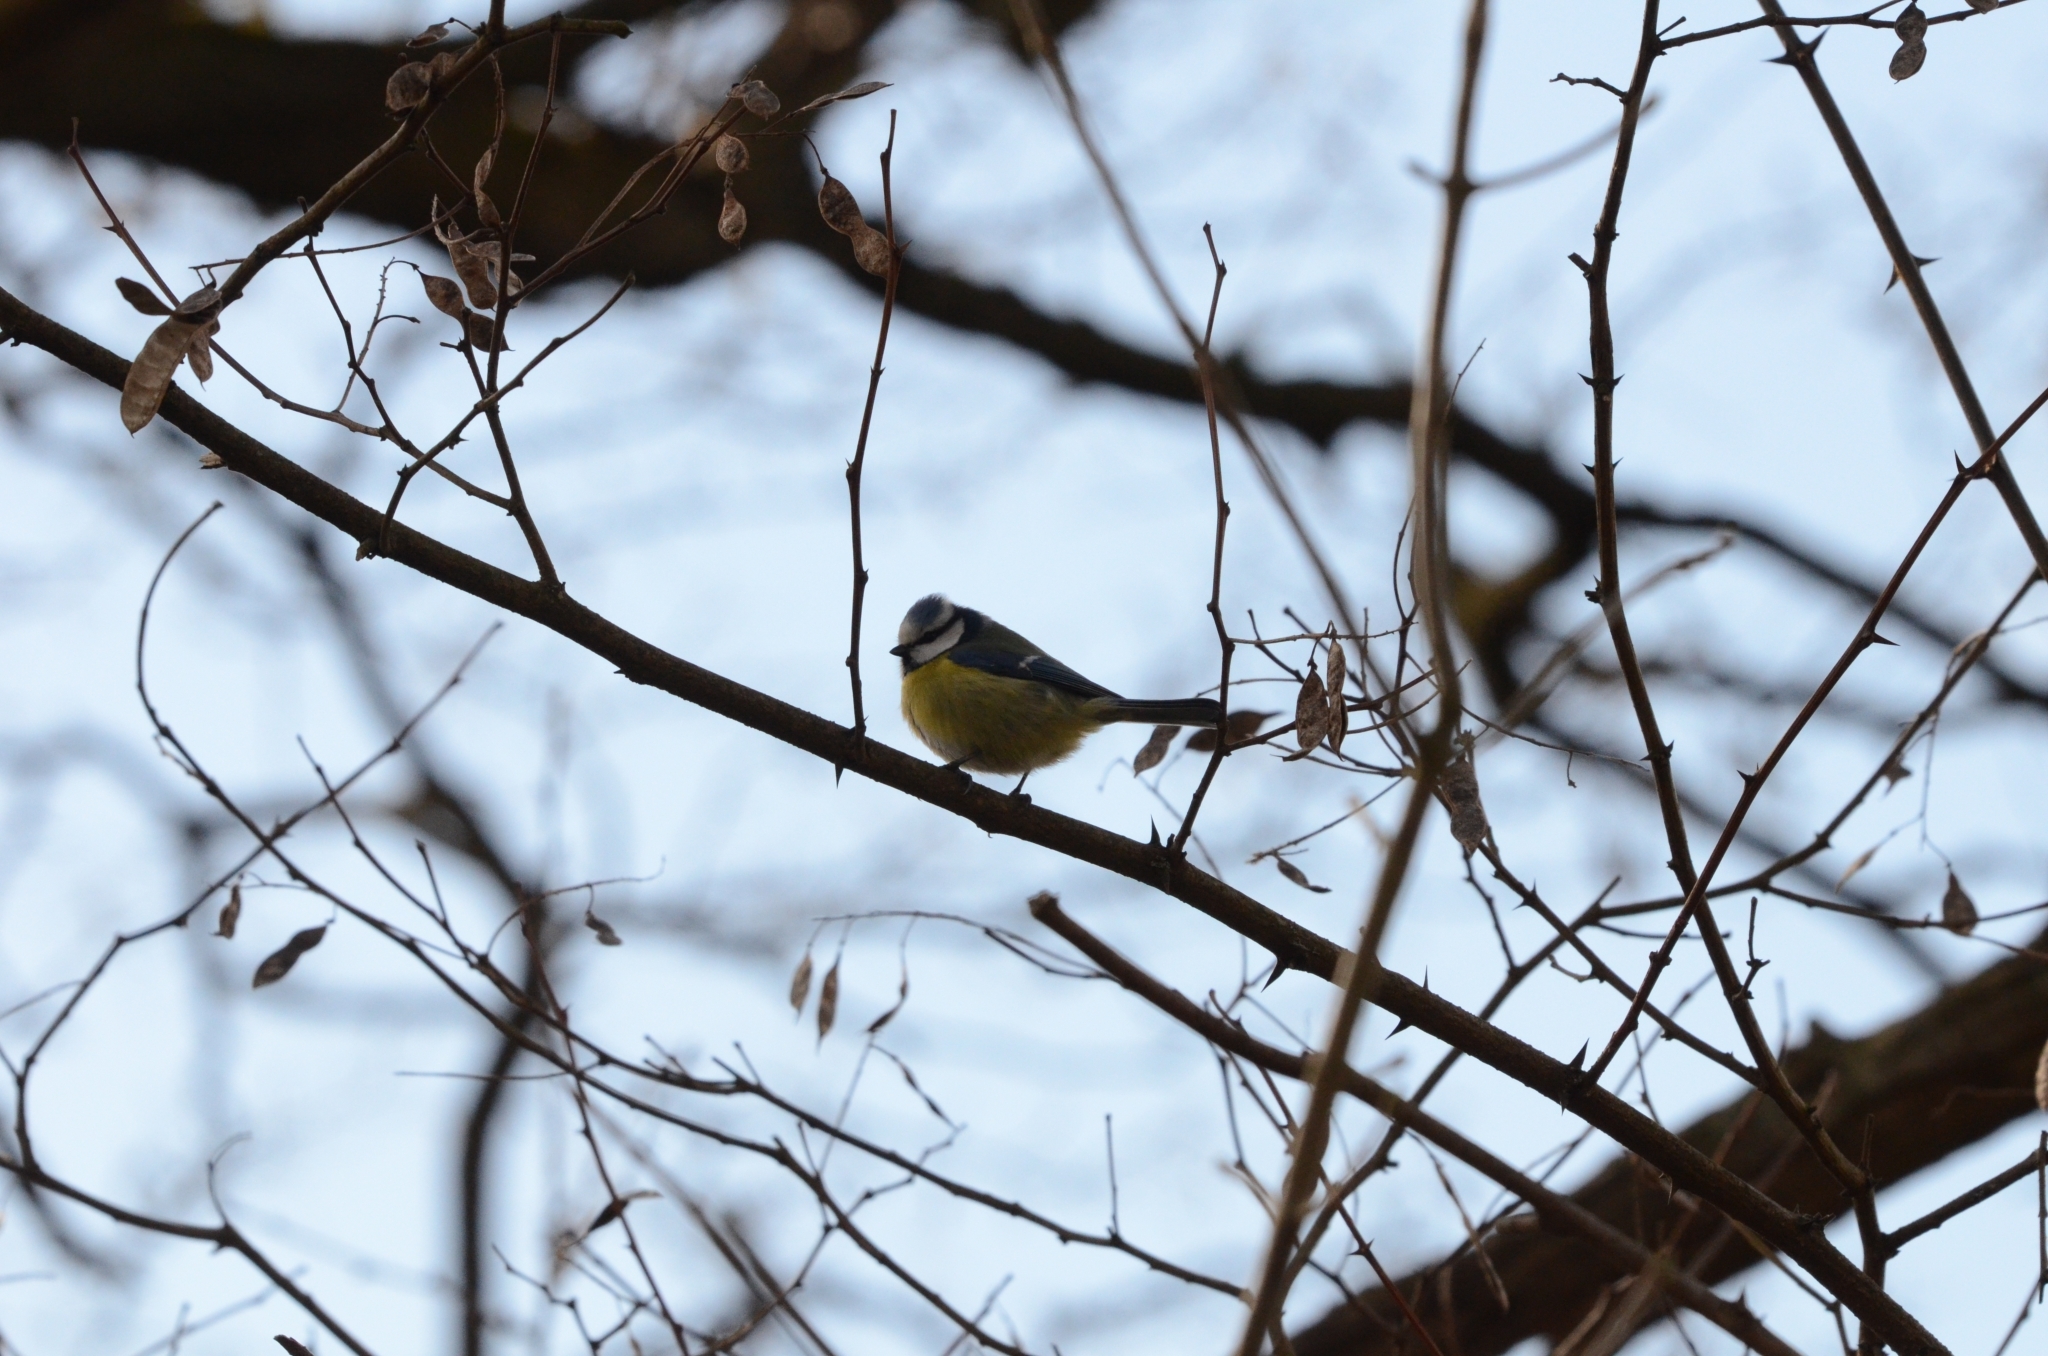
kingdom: Animalia
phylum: Chordata
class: Aves
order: Passeriformes
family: Paridae
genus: Cyanistes
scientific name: Cyanistes caeruleus
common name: Eurasian blue tit
